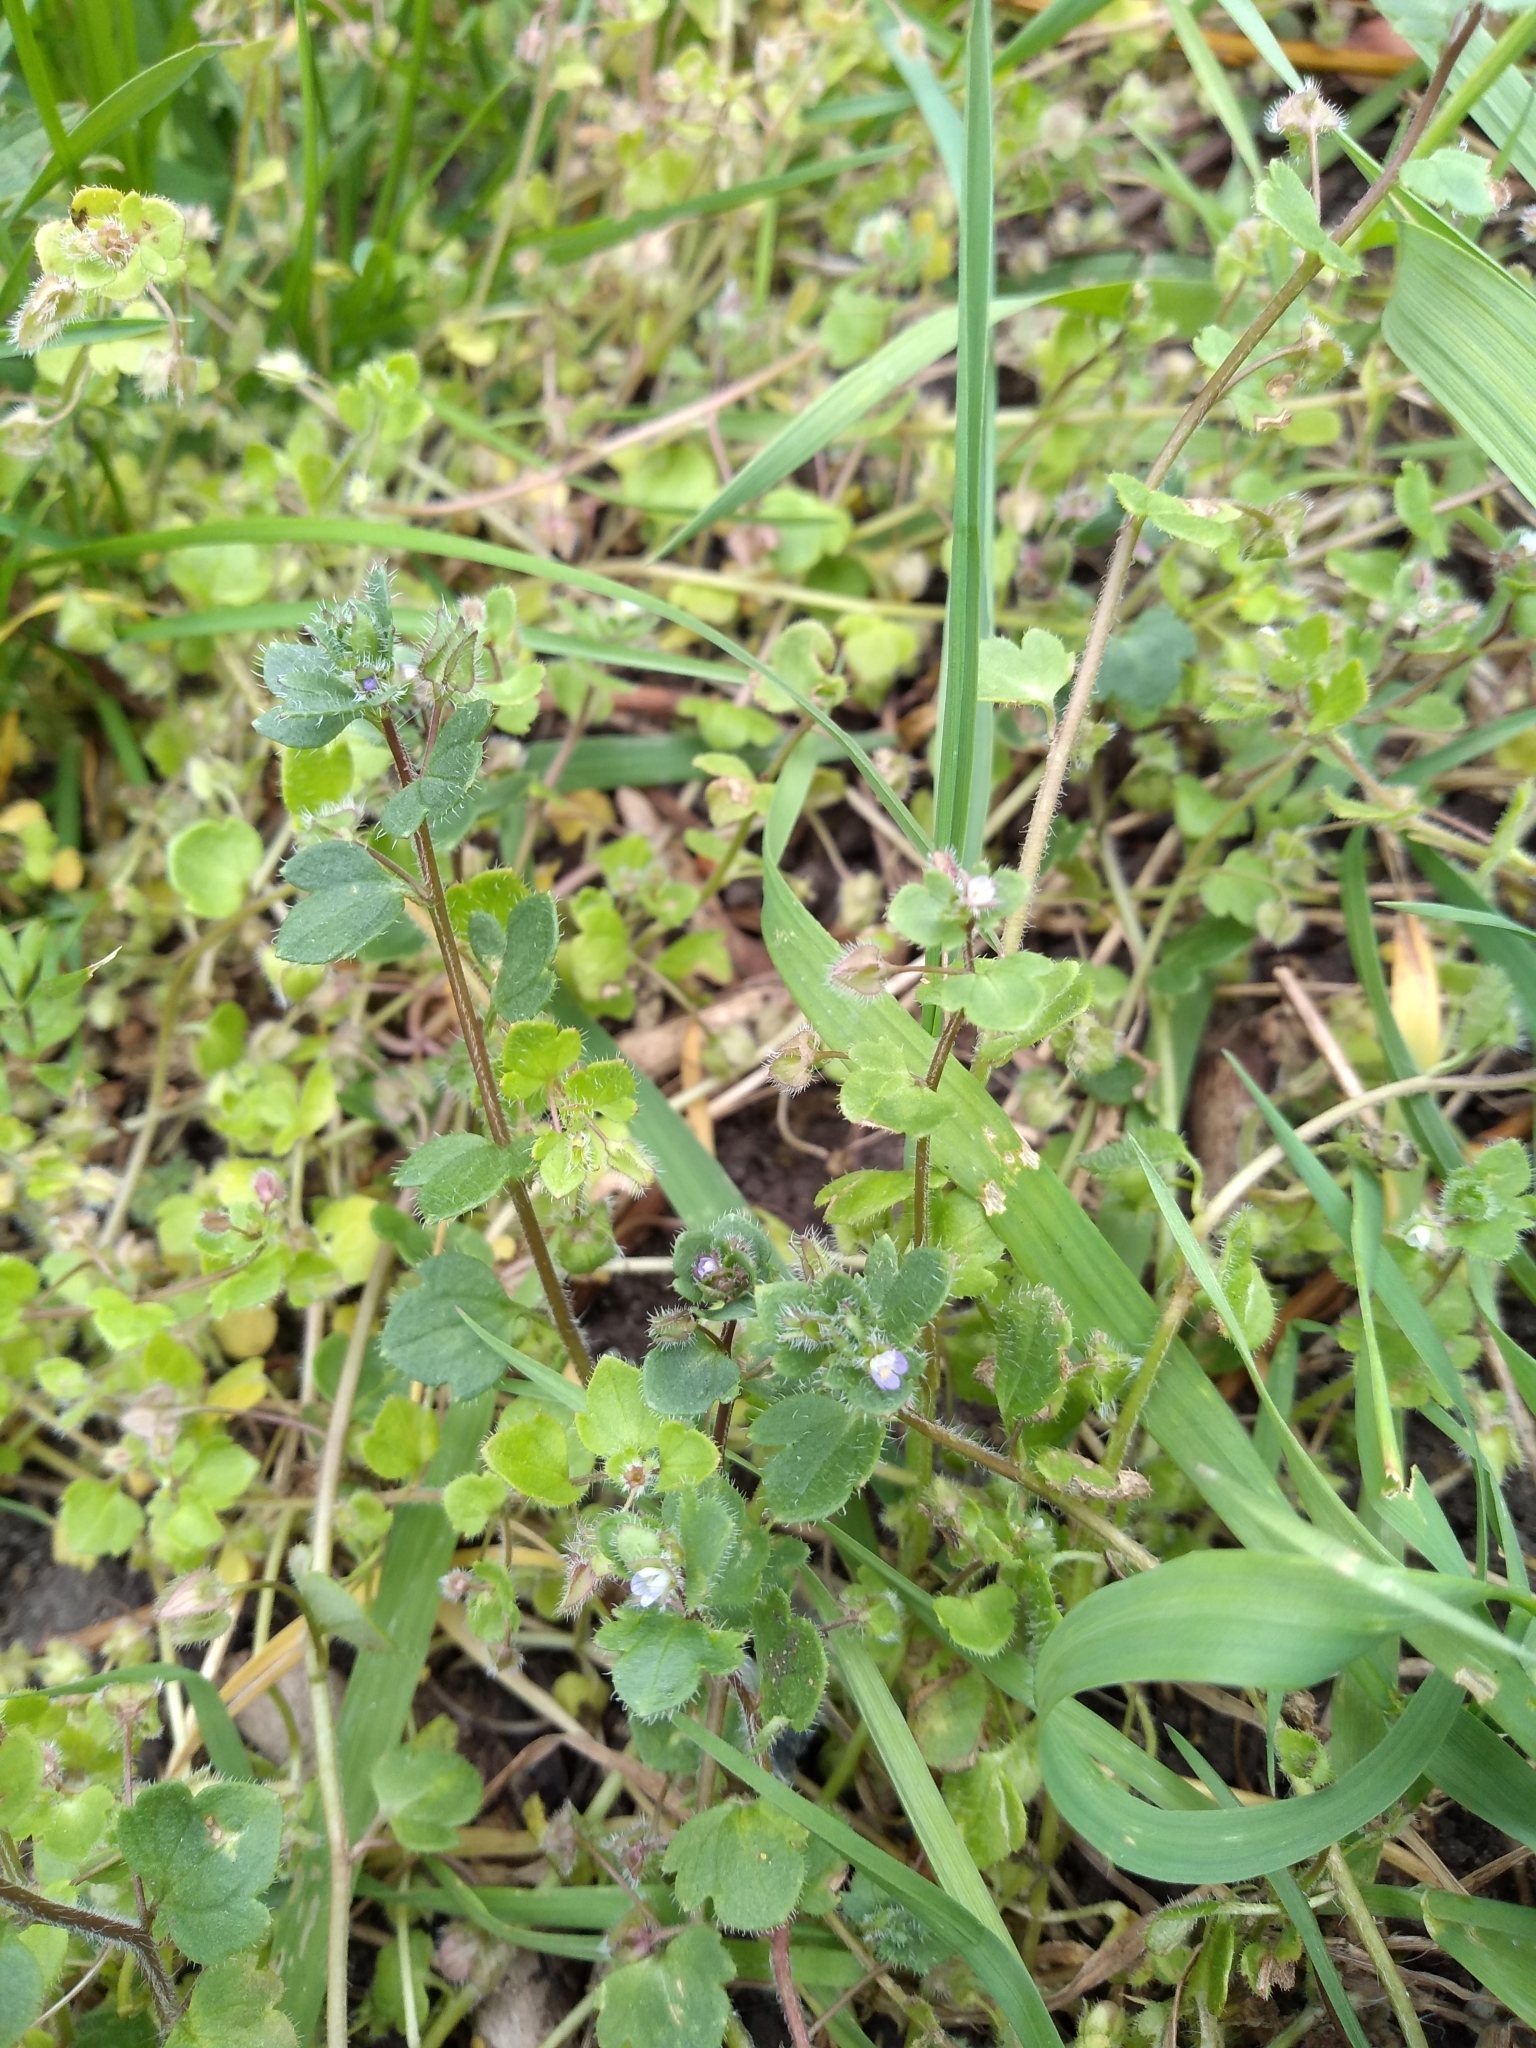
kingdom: Plantae
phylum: Tracheophyta
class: Magnoliopsida
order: Lamiales
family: Plantaginaceae
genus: Veronica
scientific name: Veronica sublobata
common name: False ivy-leaved speedwell
